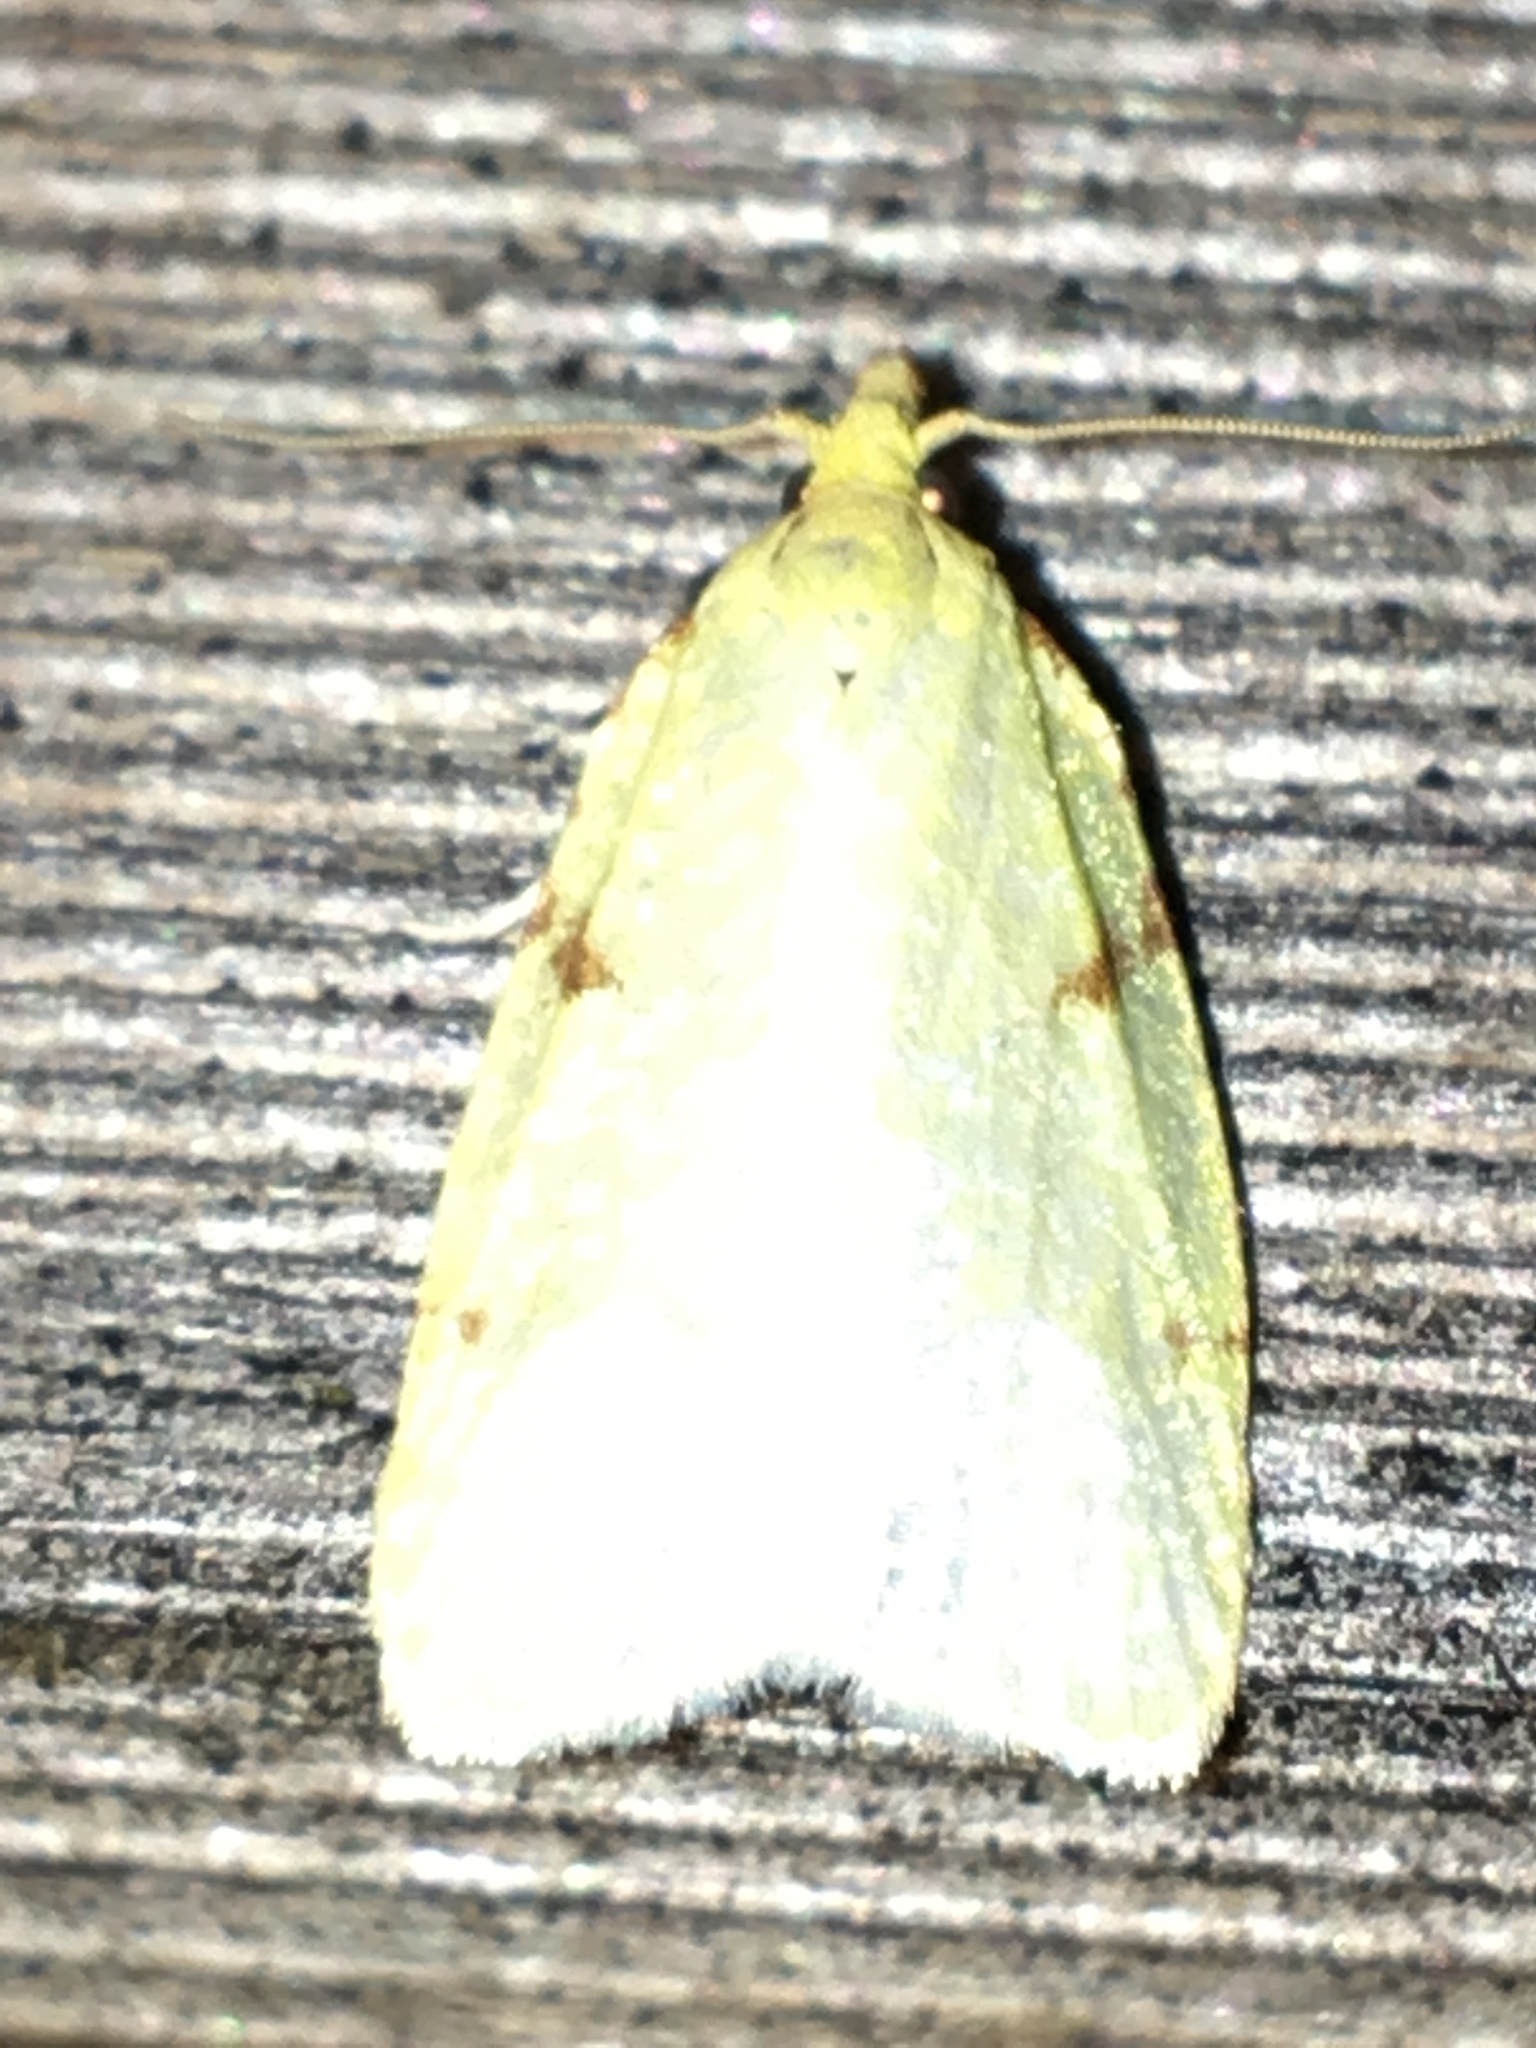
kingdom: Animalia
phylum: Arthropoda
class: Insecta
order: Lepidoptera
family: Tortricidae
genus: Cenopis
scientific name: Cenopis pettitana
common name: Maple-basswood leafroller moth
